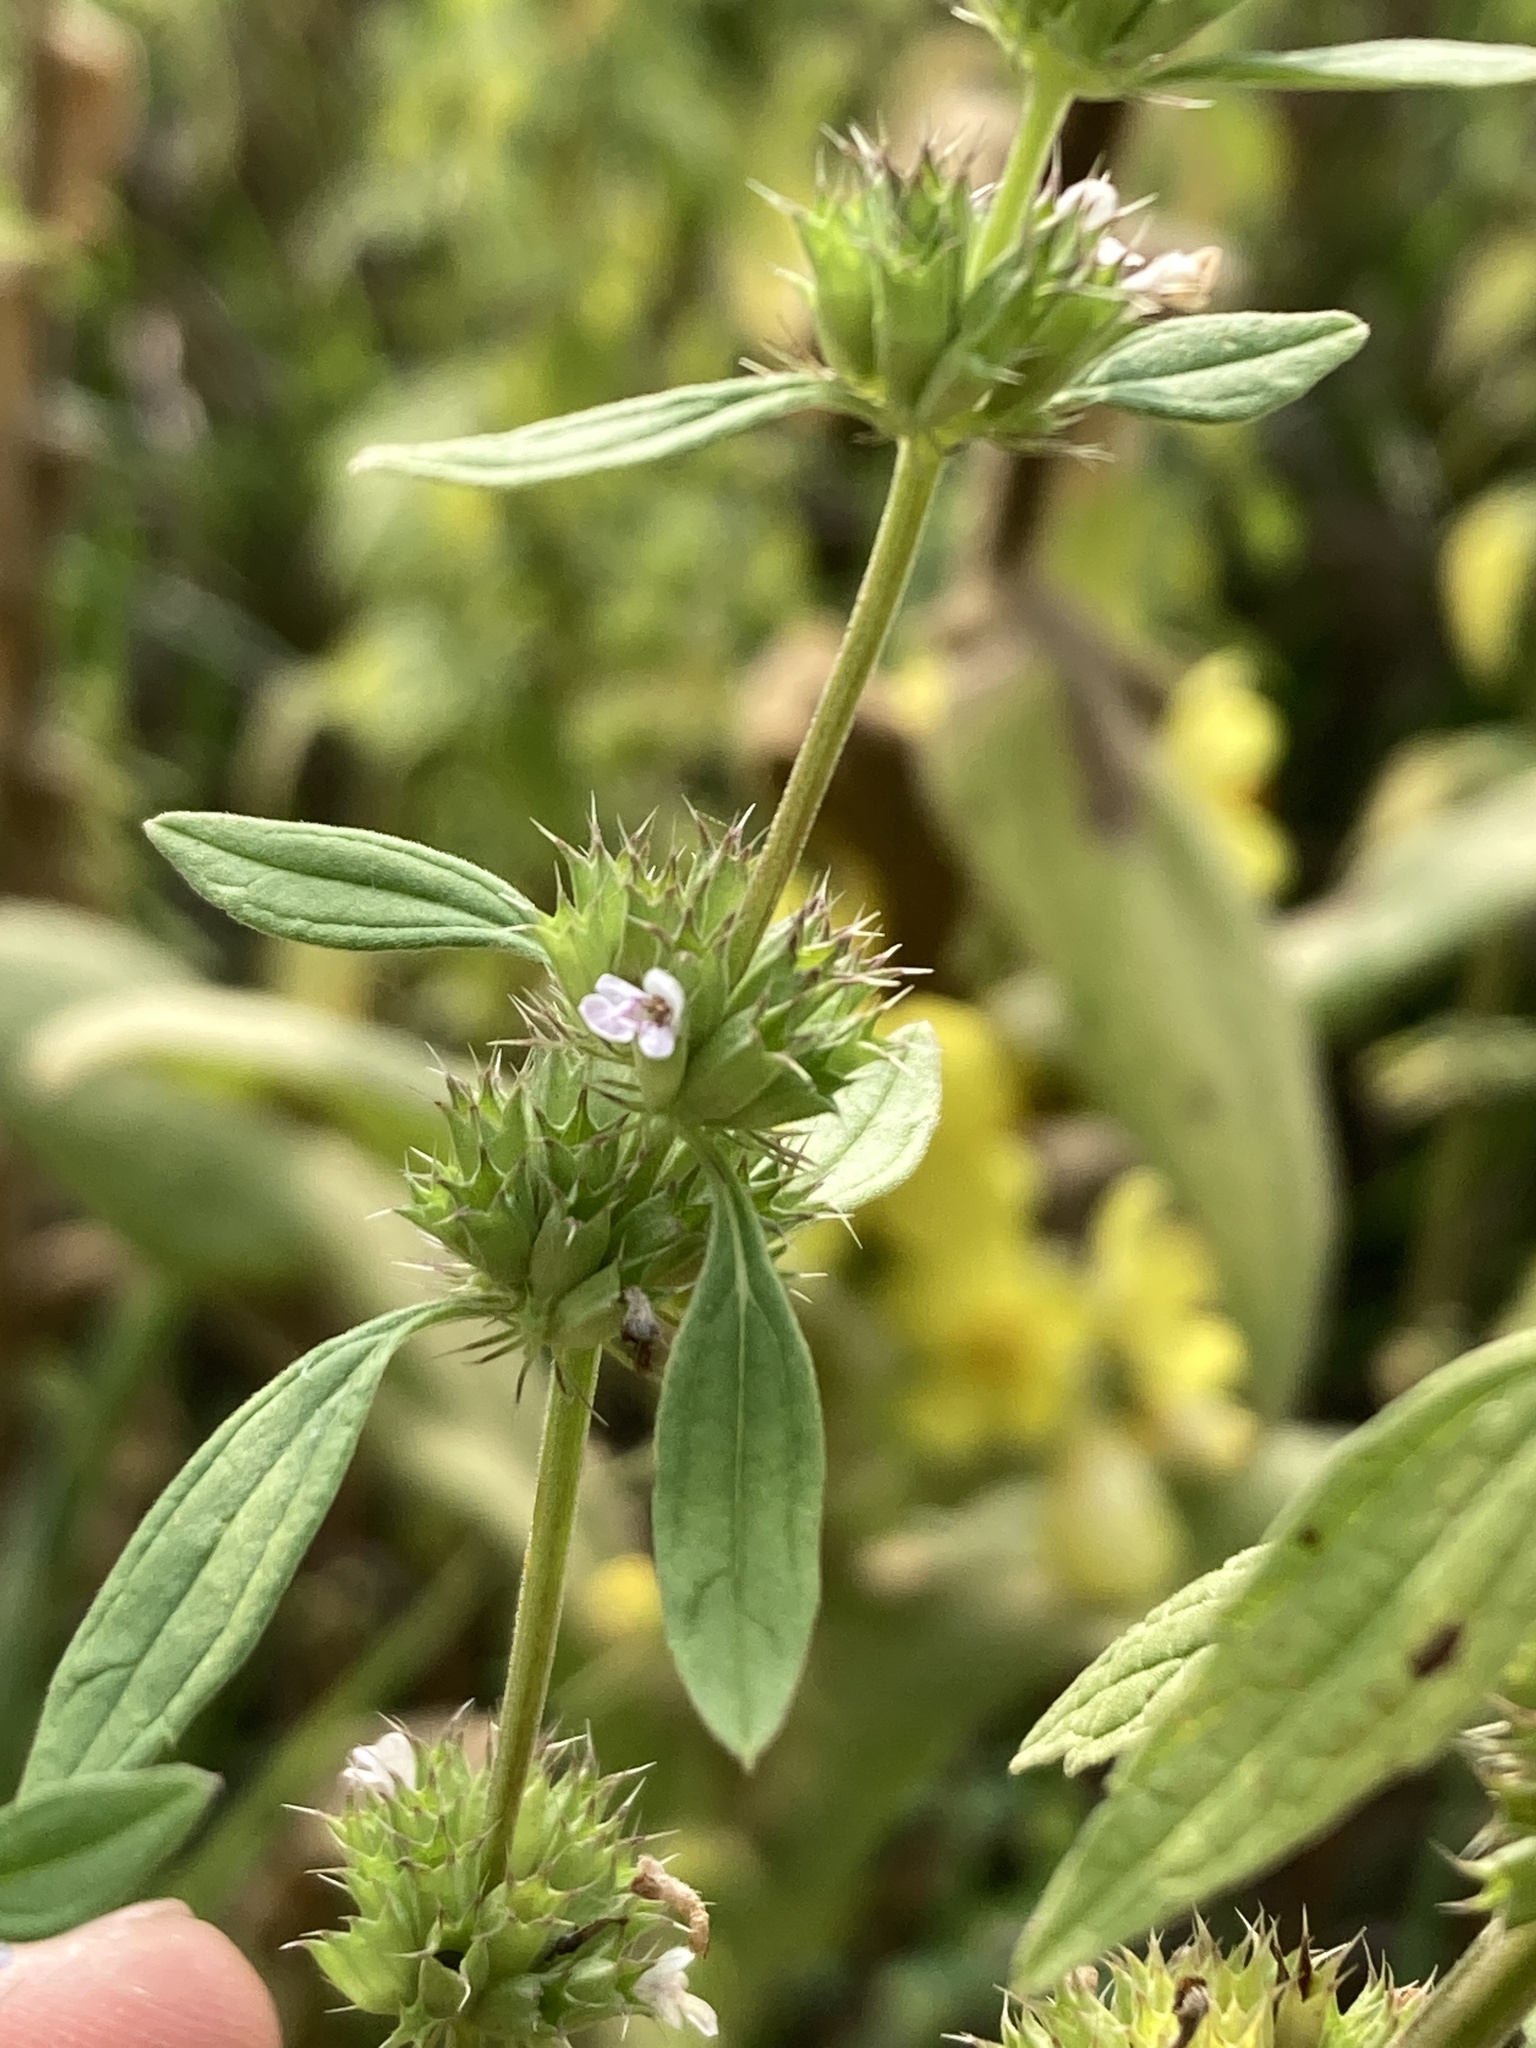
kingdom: Plantae
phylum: Tracheophyta
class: Magnoliopsida
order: Lamiales
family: Lamiaceae
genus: Chaiturus
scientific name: Chaiturus marrubiastrum
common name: Lion's tail
